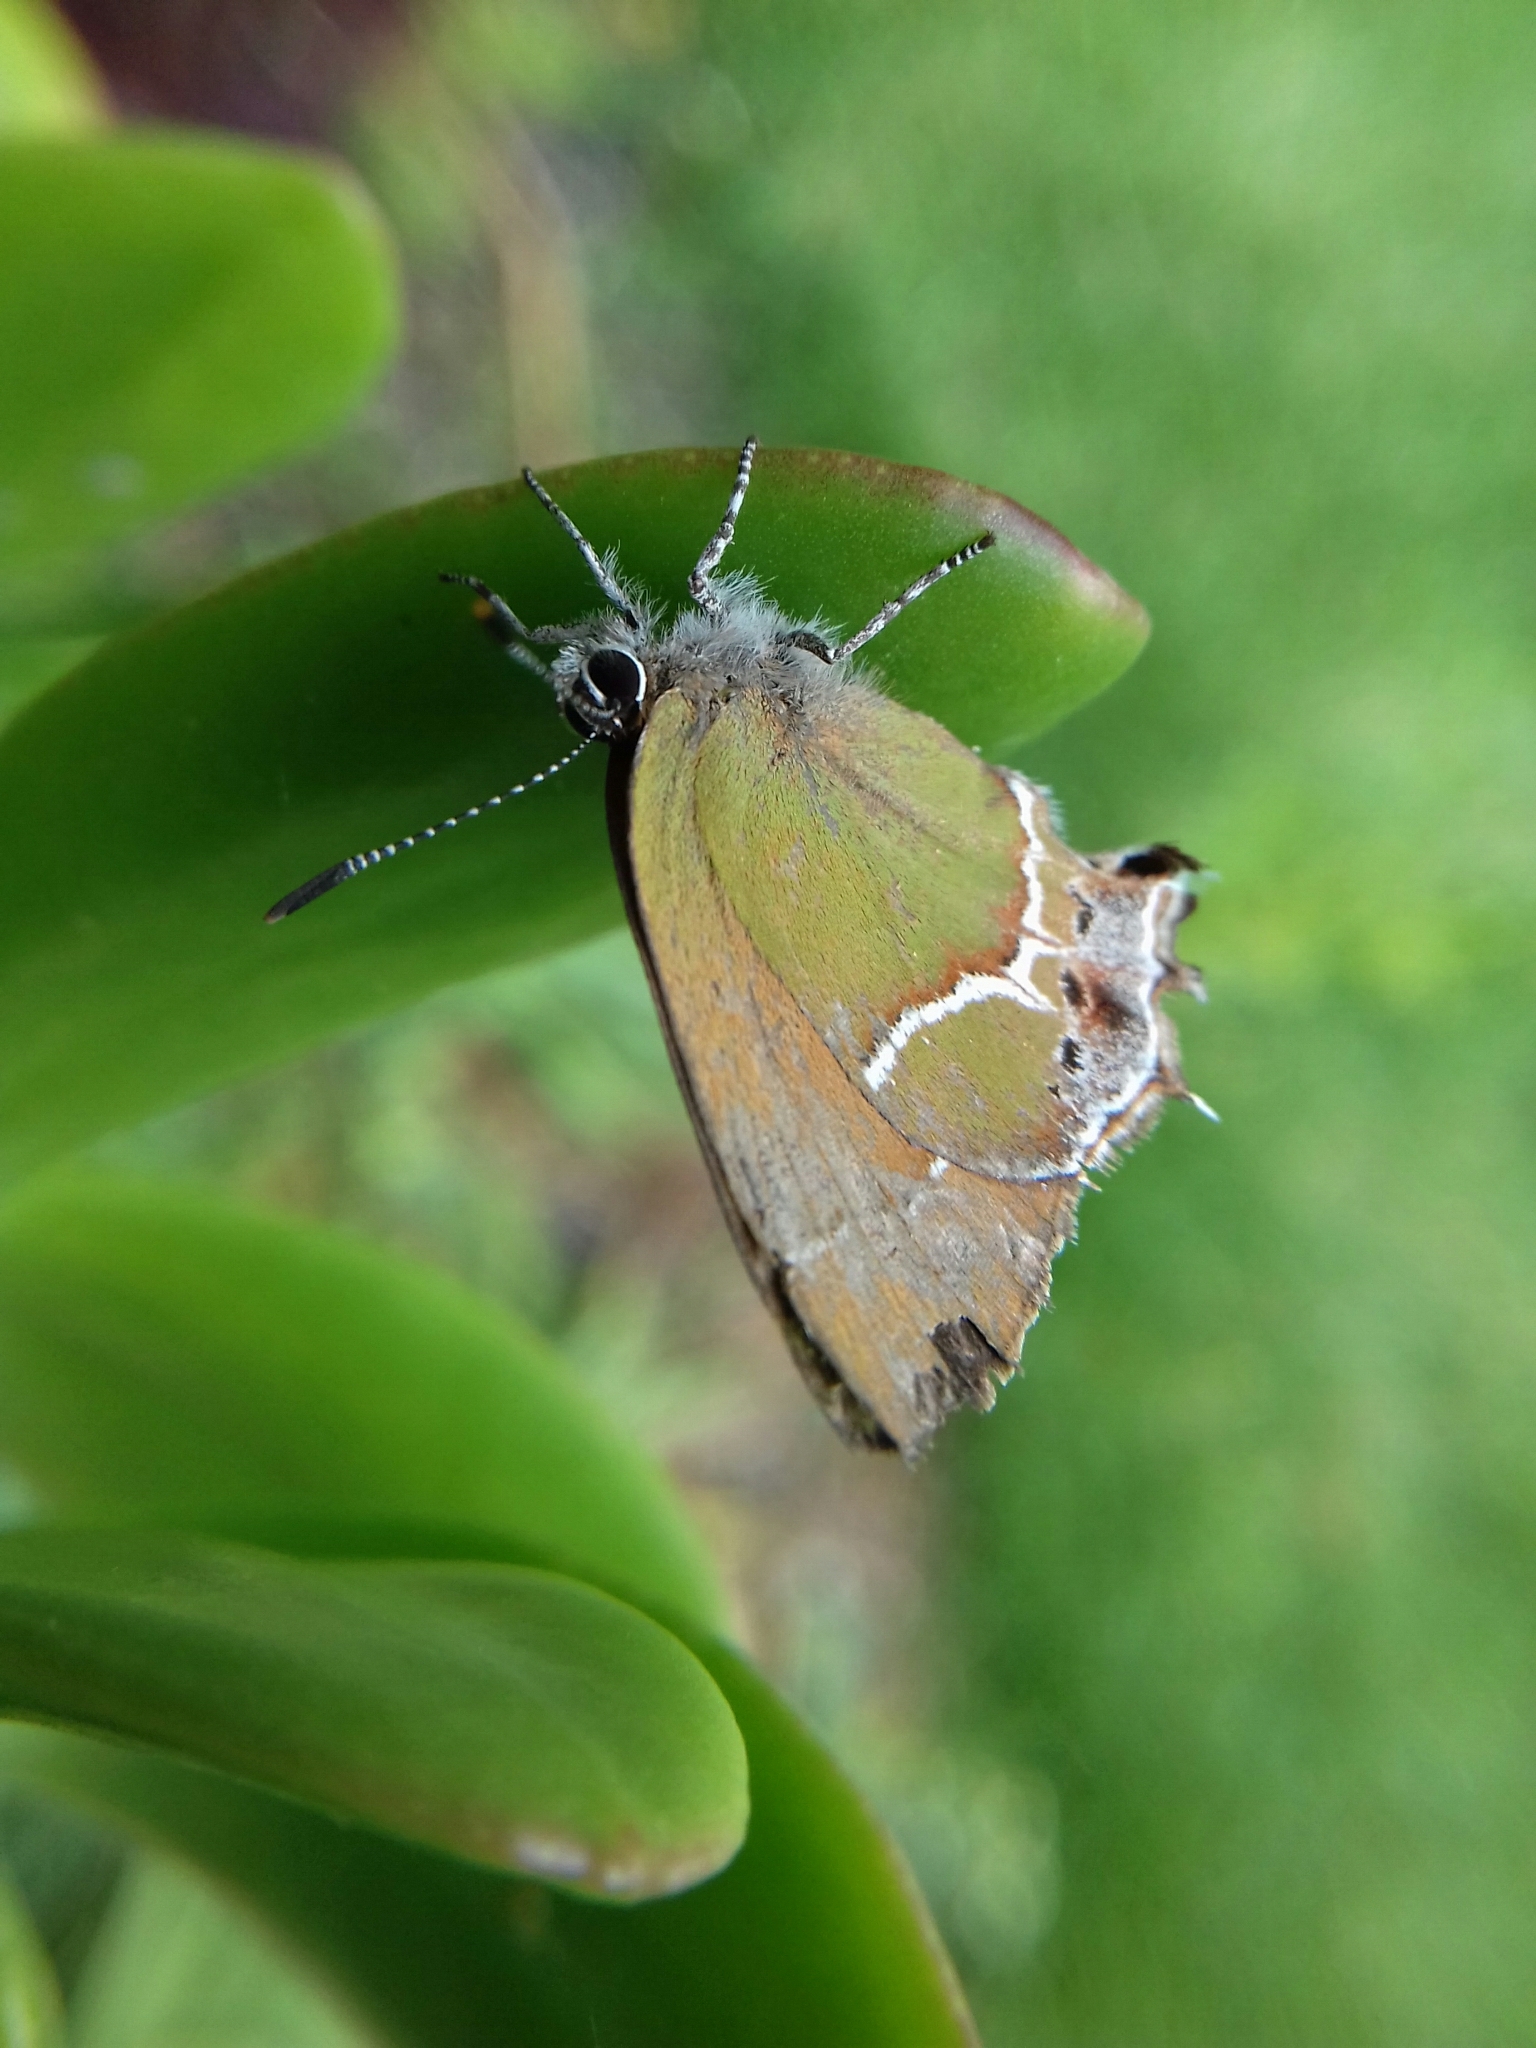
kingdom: Animalia
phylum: Arthropoda
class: Insecta
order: Lepidoptera
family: Lycaenidae
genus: Xamia
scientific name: Xamia xami
